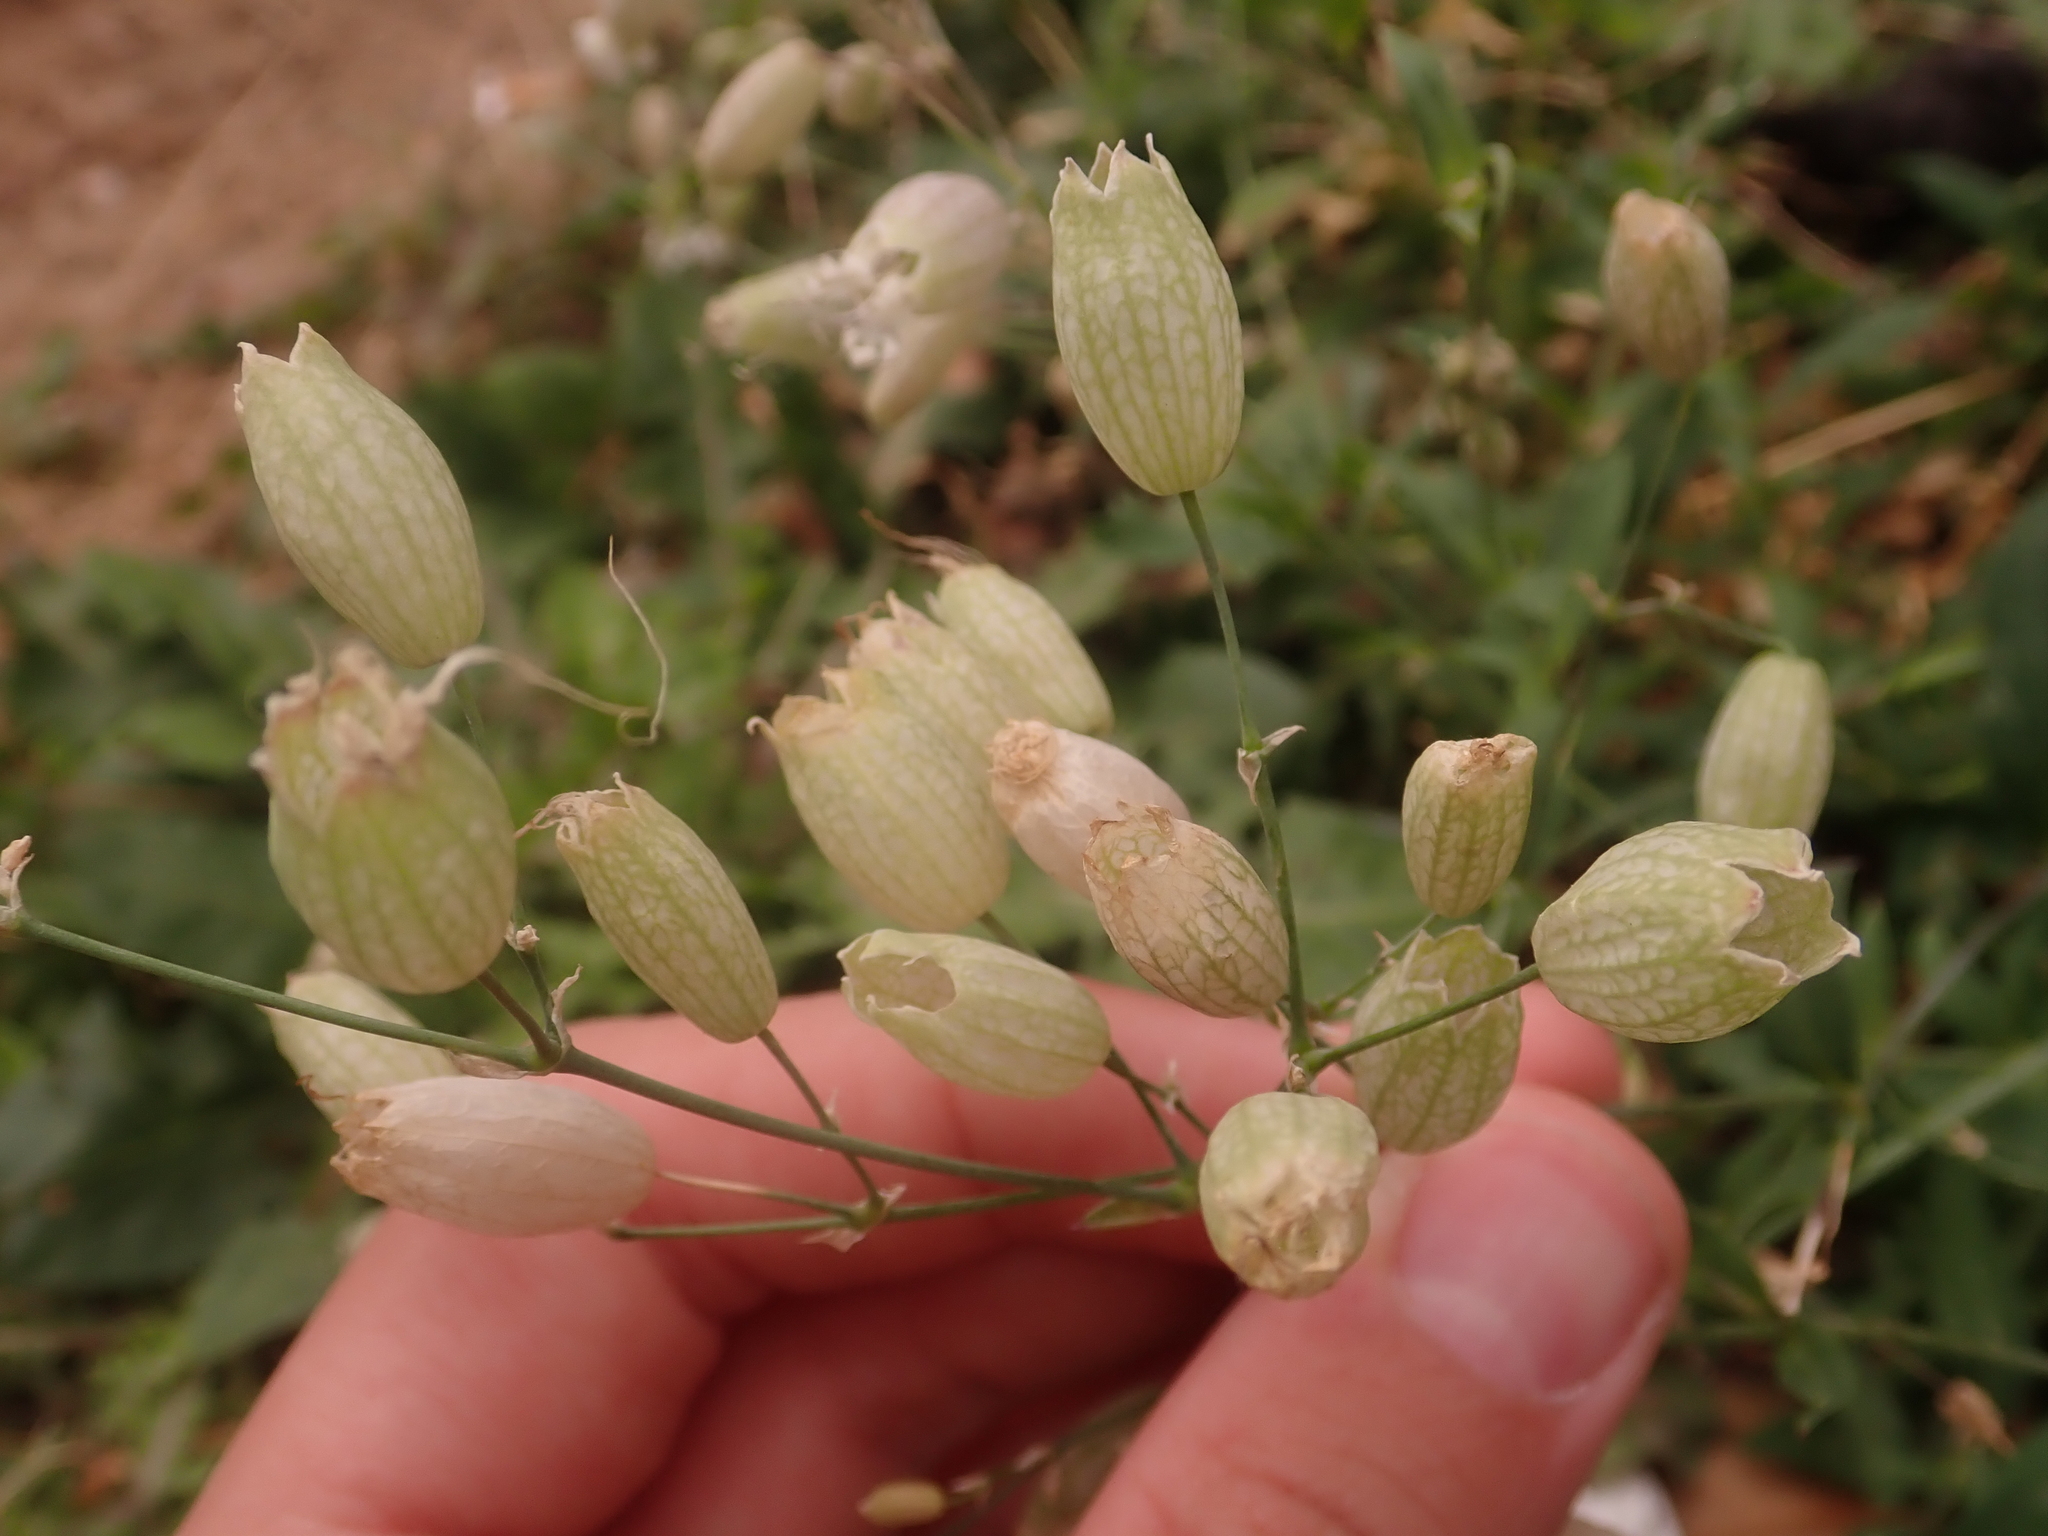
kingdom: Plantae
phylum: Tracheophyta
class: Magnoliopsida
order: Caryophyllales
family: Caryophyllaceae
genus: Silene
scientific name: Silene vulgaris
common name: Bladder campion
